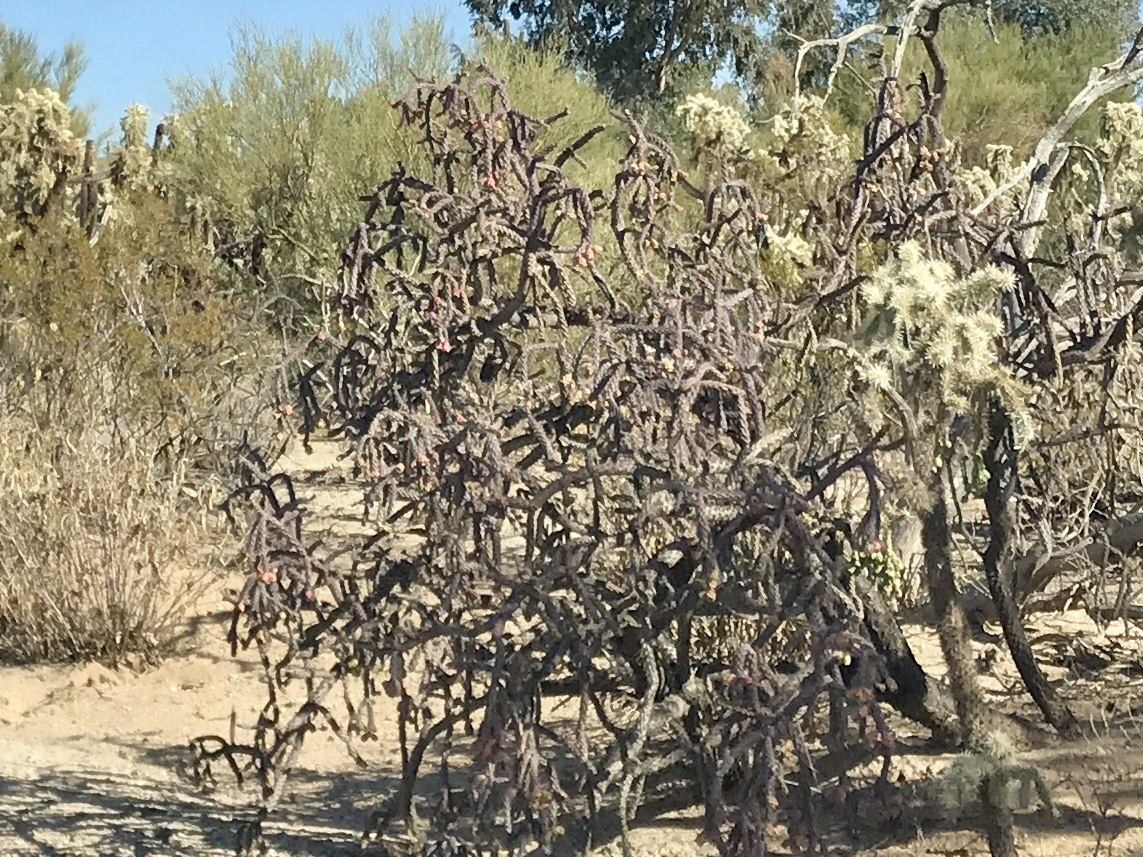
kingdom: Plantae
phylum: Tracheophyta
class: Magnoliopsida
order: Caryophyllales
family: Cactaceae
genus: Cylindropuntia
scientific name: Cylindropuntia thurberi
